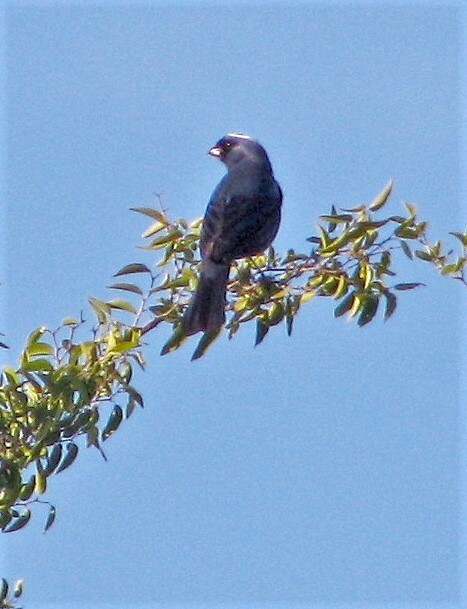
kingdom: Animalia
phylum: Chordata
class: Aves
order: Passeriformes
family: Thraupidae
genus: Stephanophorus
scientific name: Stephanophorus diadematus
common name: Diademed tanager
